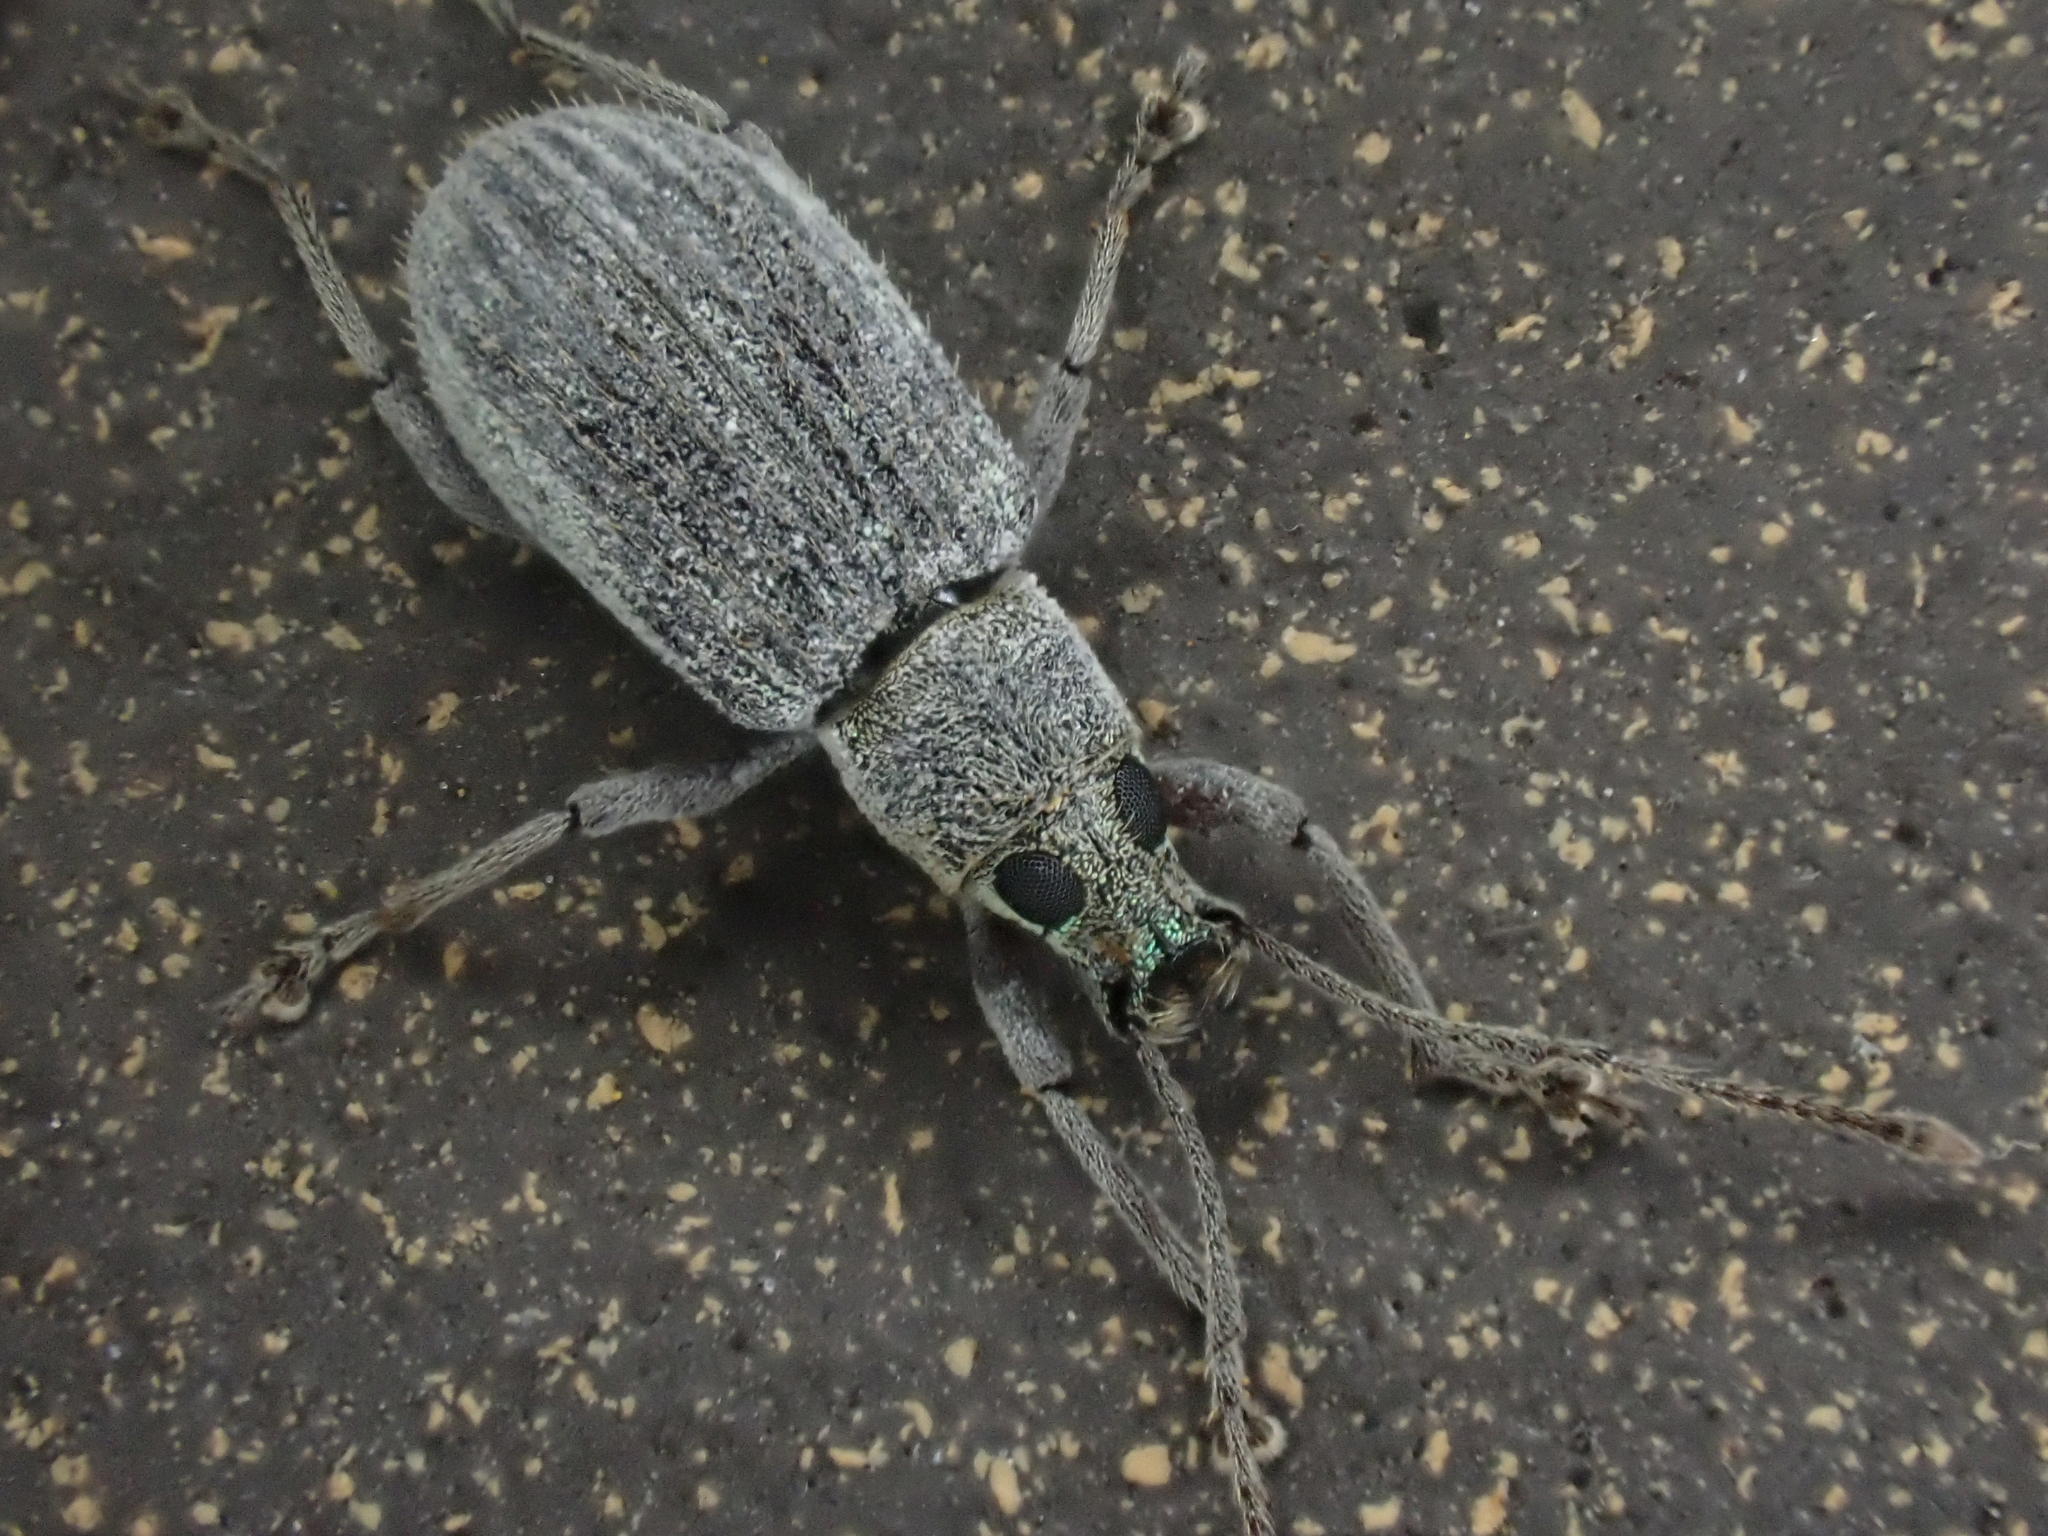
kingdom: Animalia
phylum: Arthropoda
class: Insecta
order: Coleoptera
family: Curculionidae
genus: Cyrtepistomus
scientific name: Cyrtepistomus castaneus
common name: Weevil
